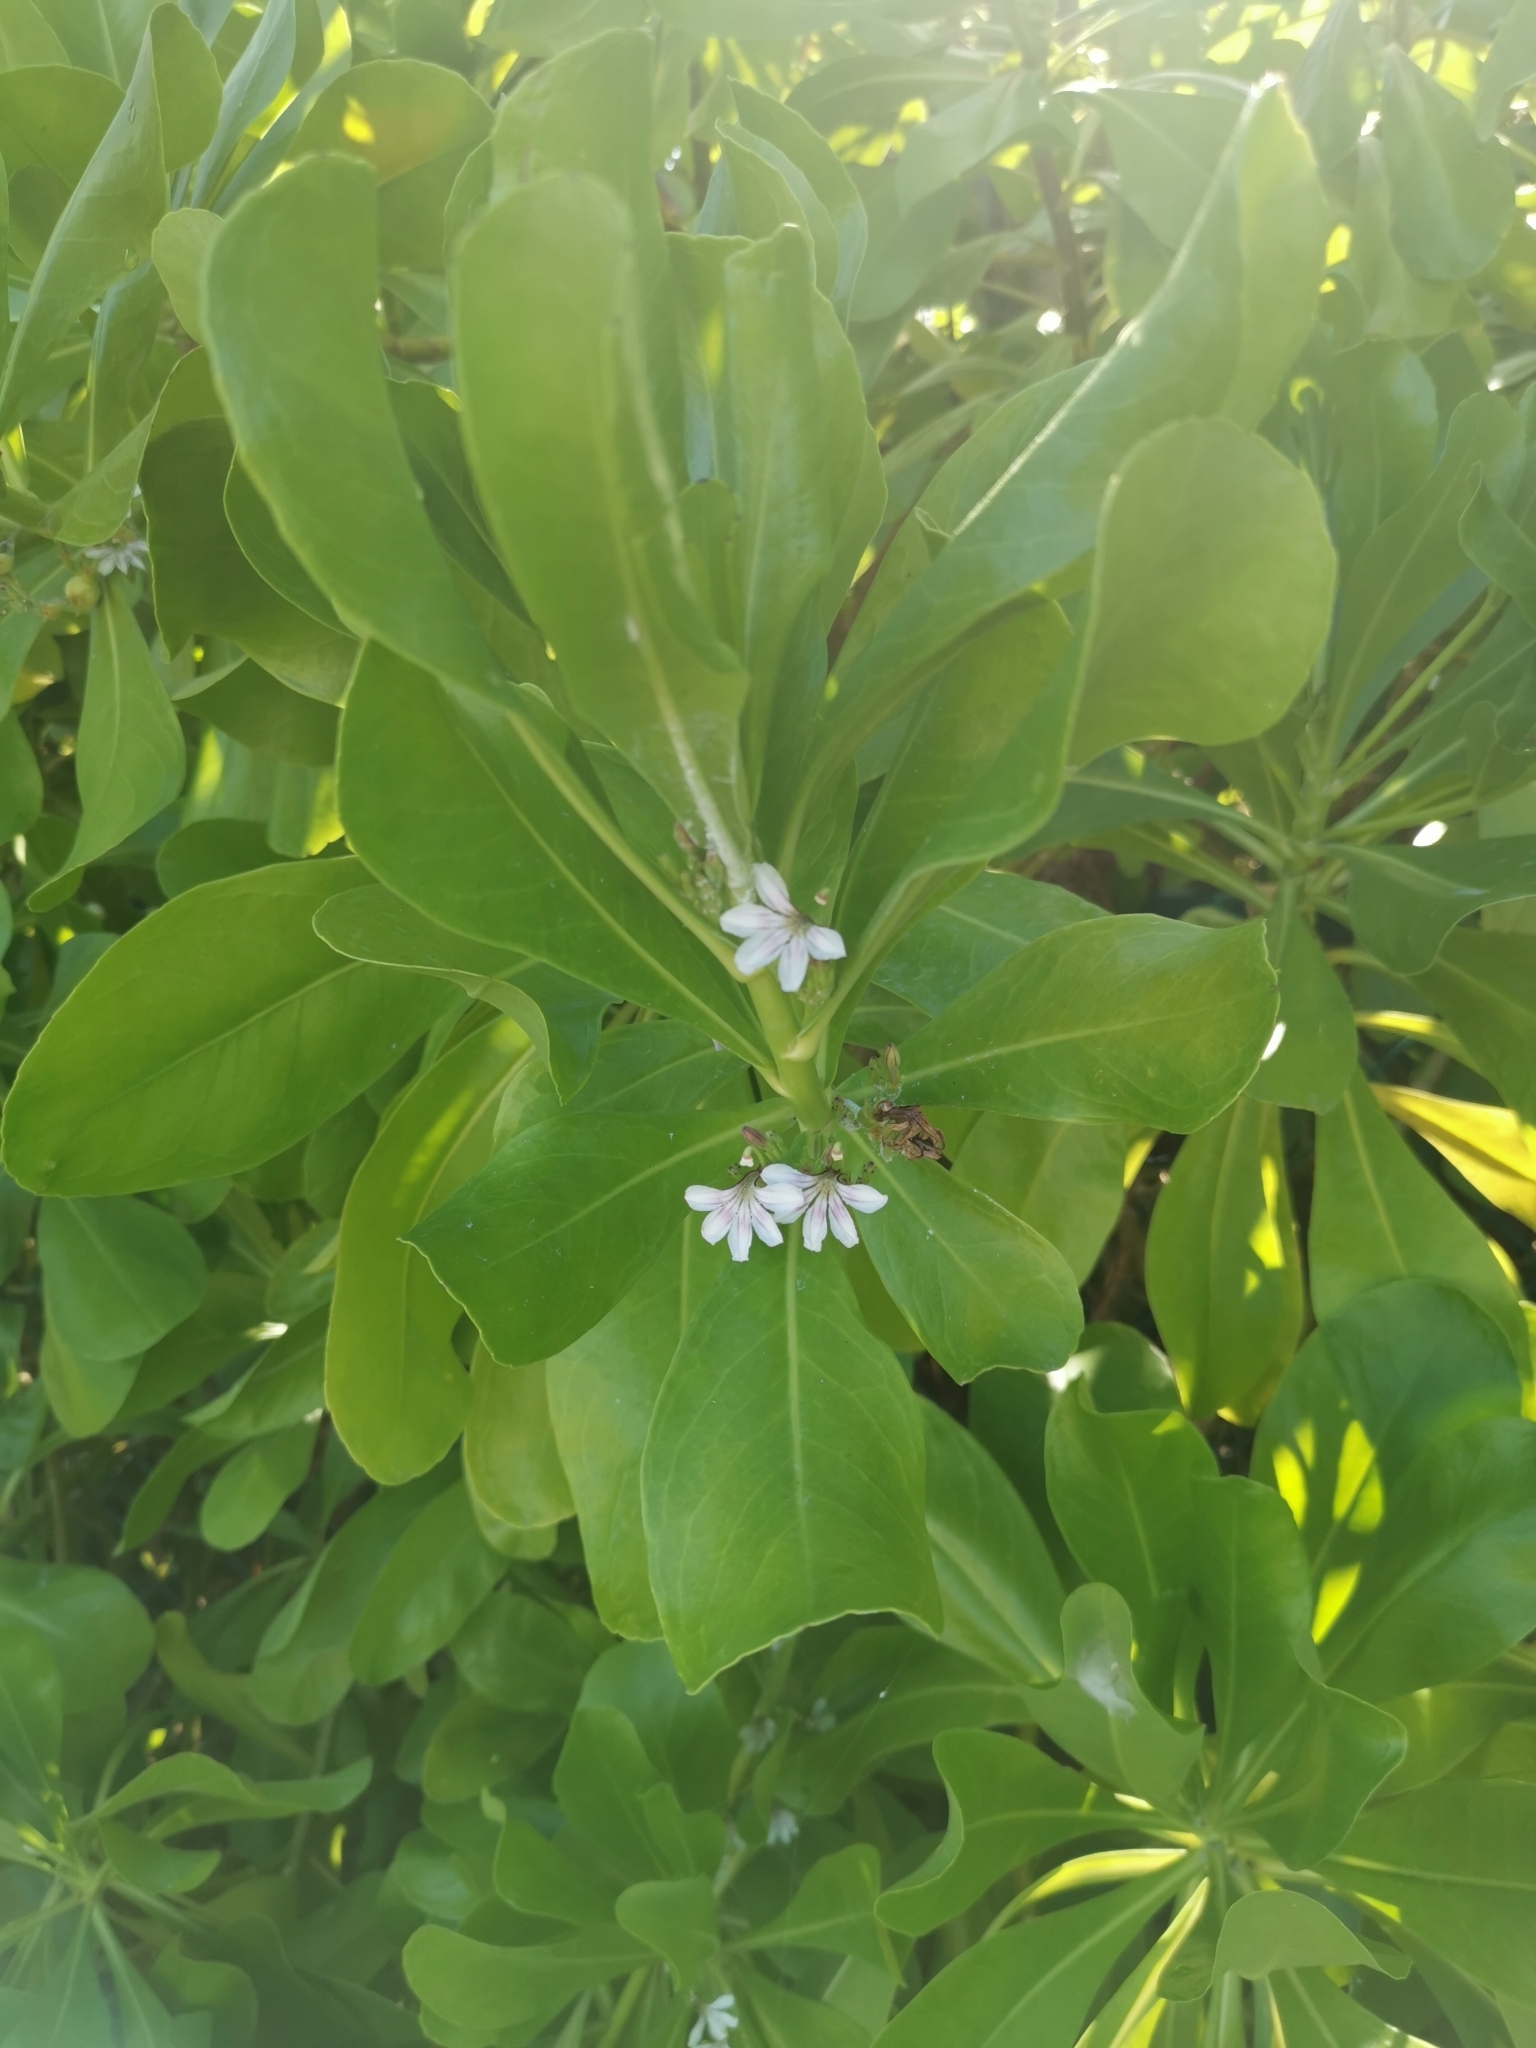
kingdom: Plantae
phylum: Tracheophyta
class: Magnoliopsida
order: Asterales
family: Goodeniaceae
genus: Scaevola
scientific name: Scaevola taccada
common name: Sea lettucetree
